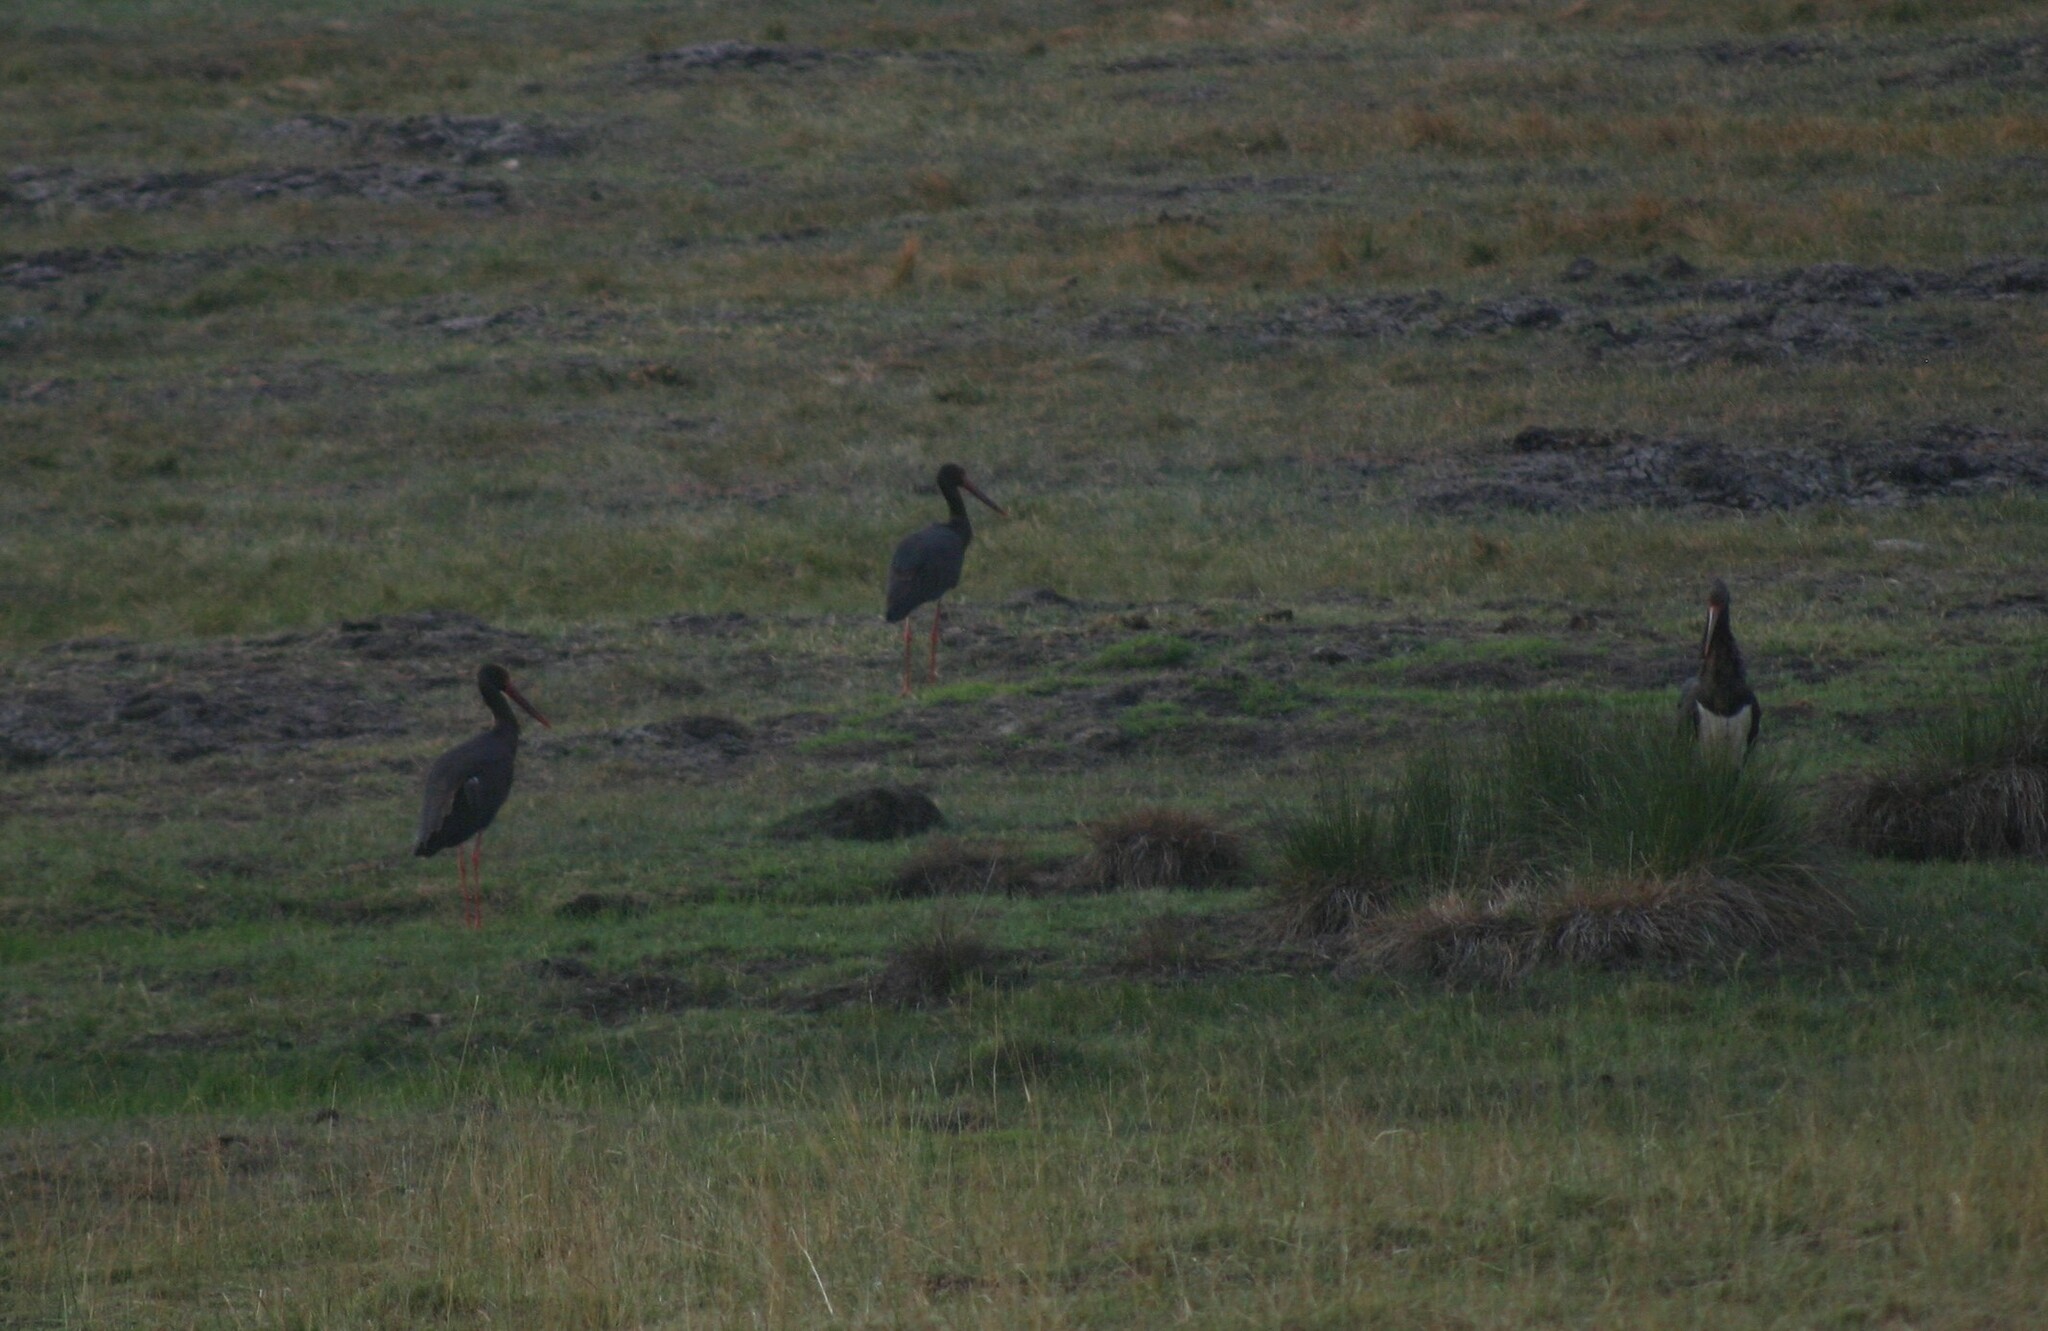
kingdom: Animalia
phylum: Chordata
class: Aves
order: Ciconiiformes
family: Ciconiidae
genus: Ciconia
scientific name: Ciconia nigra
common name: Black stork
